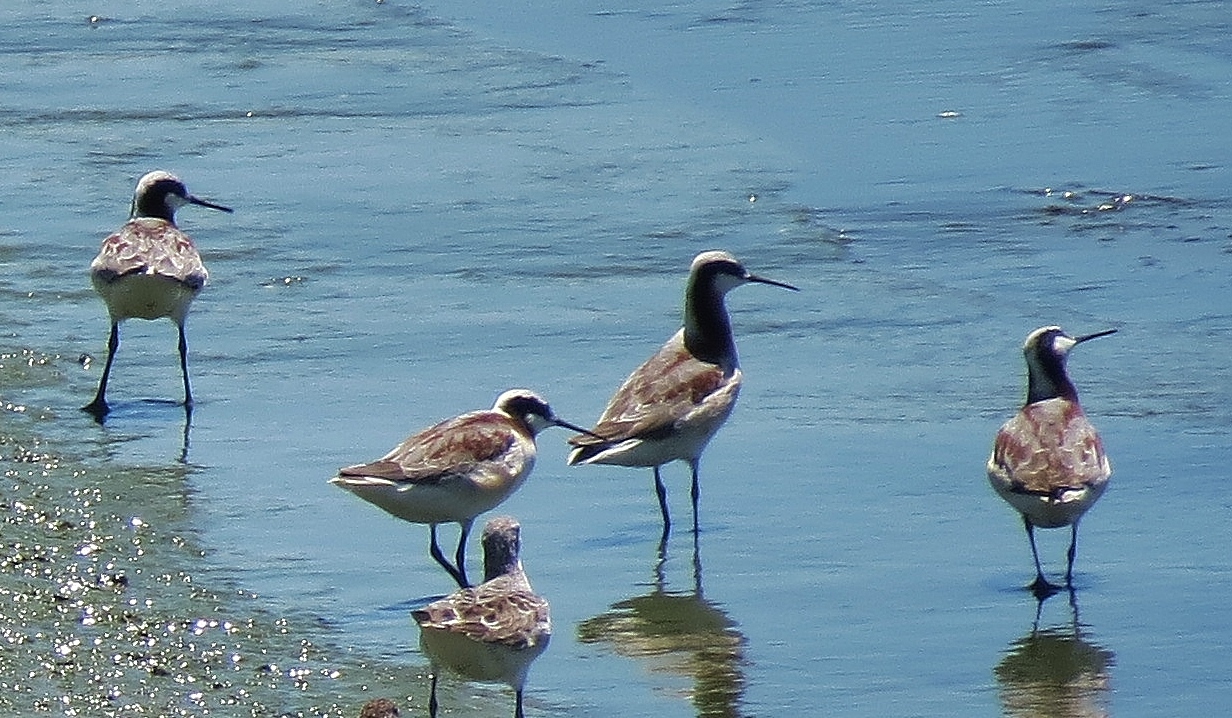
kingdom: Animalia
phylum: Chordata
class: Aves
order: Charadriiformes
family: Scolopacidae
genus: Phalaropus
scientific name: Phalaropus tricolor
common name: Wilson's phalarope
